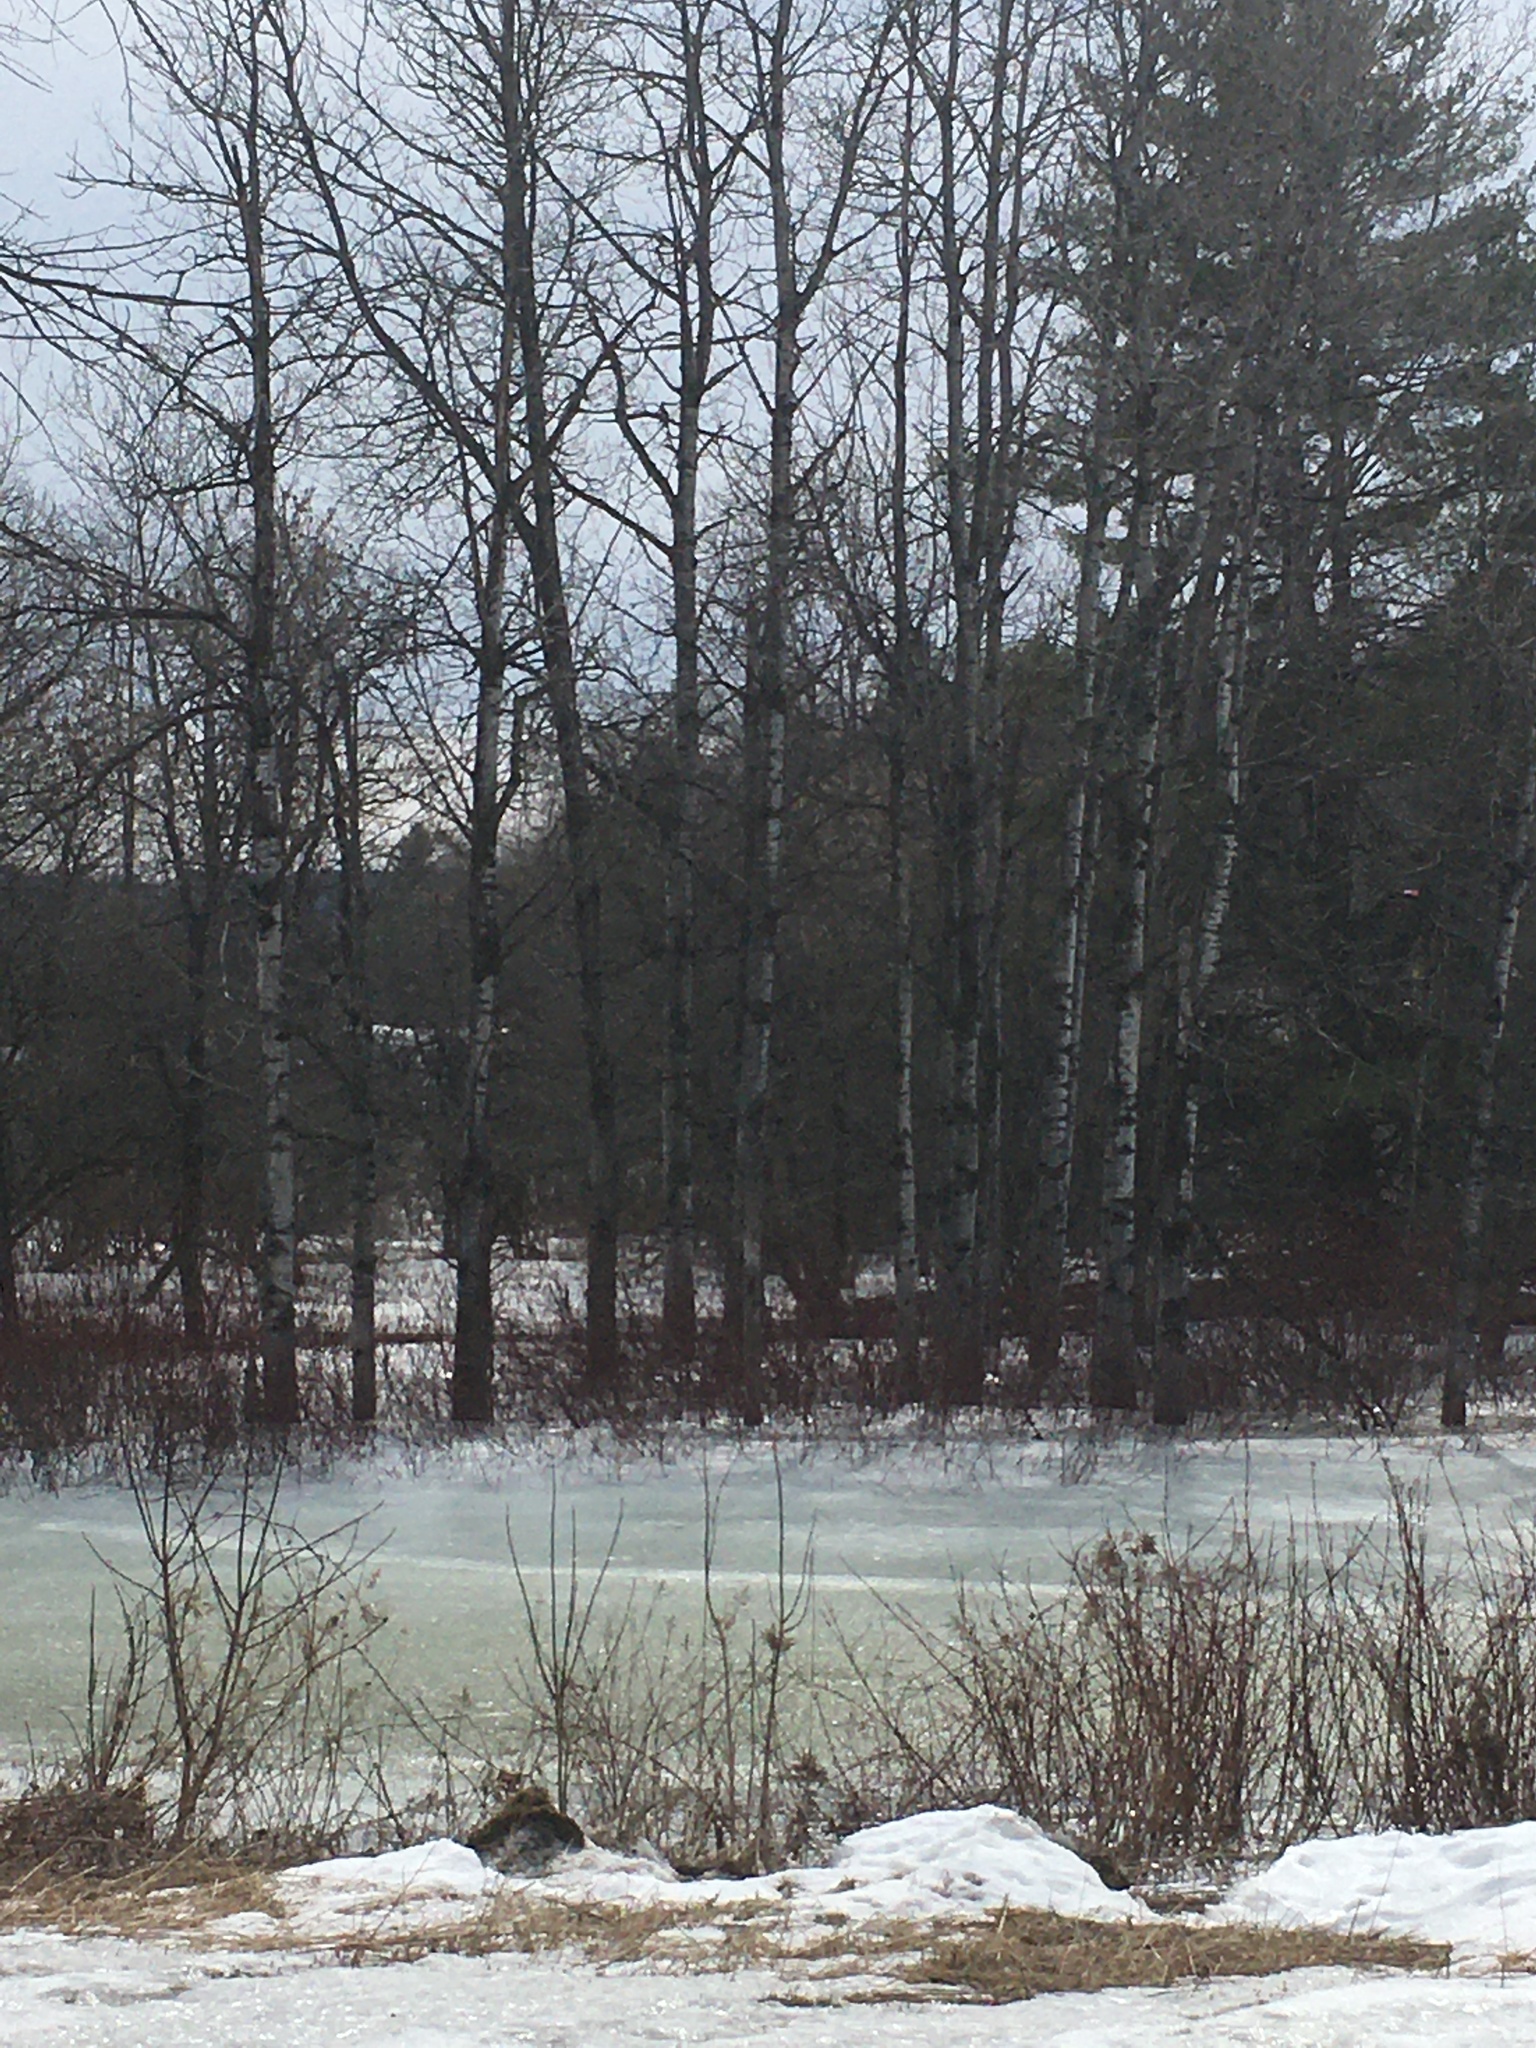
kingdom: Plantae
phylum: Tracheophyta
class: Magnoliopsida
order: Malpighiales
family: Salicaceae
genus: Populus
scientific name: Populus tremuloides
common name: Quaking aspen
